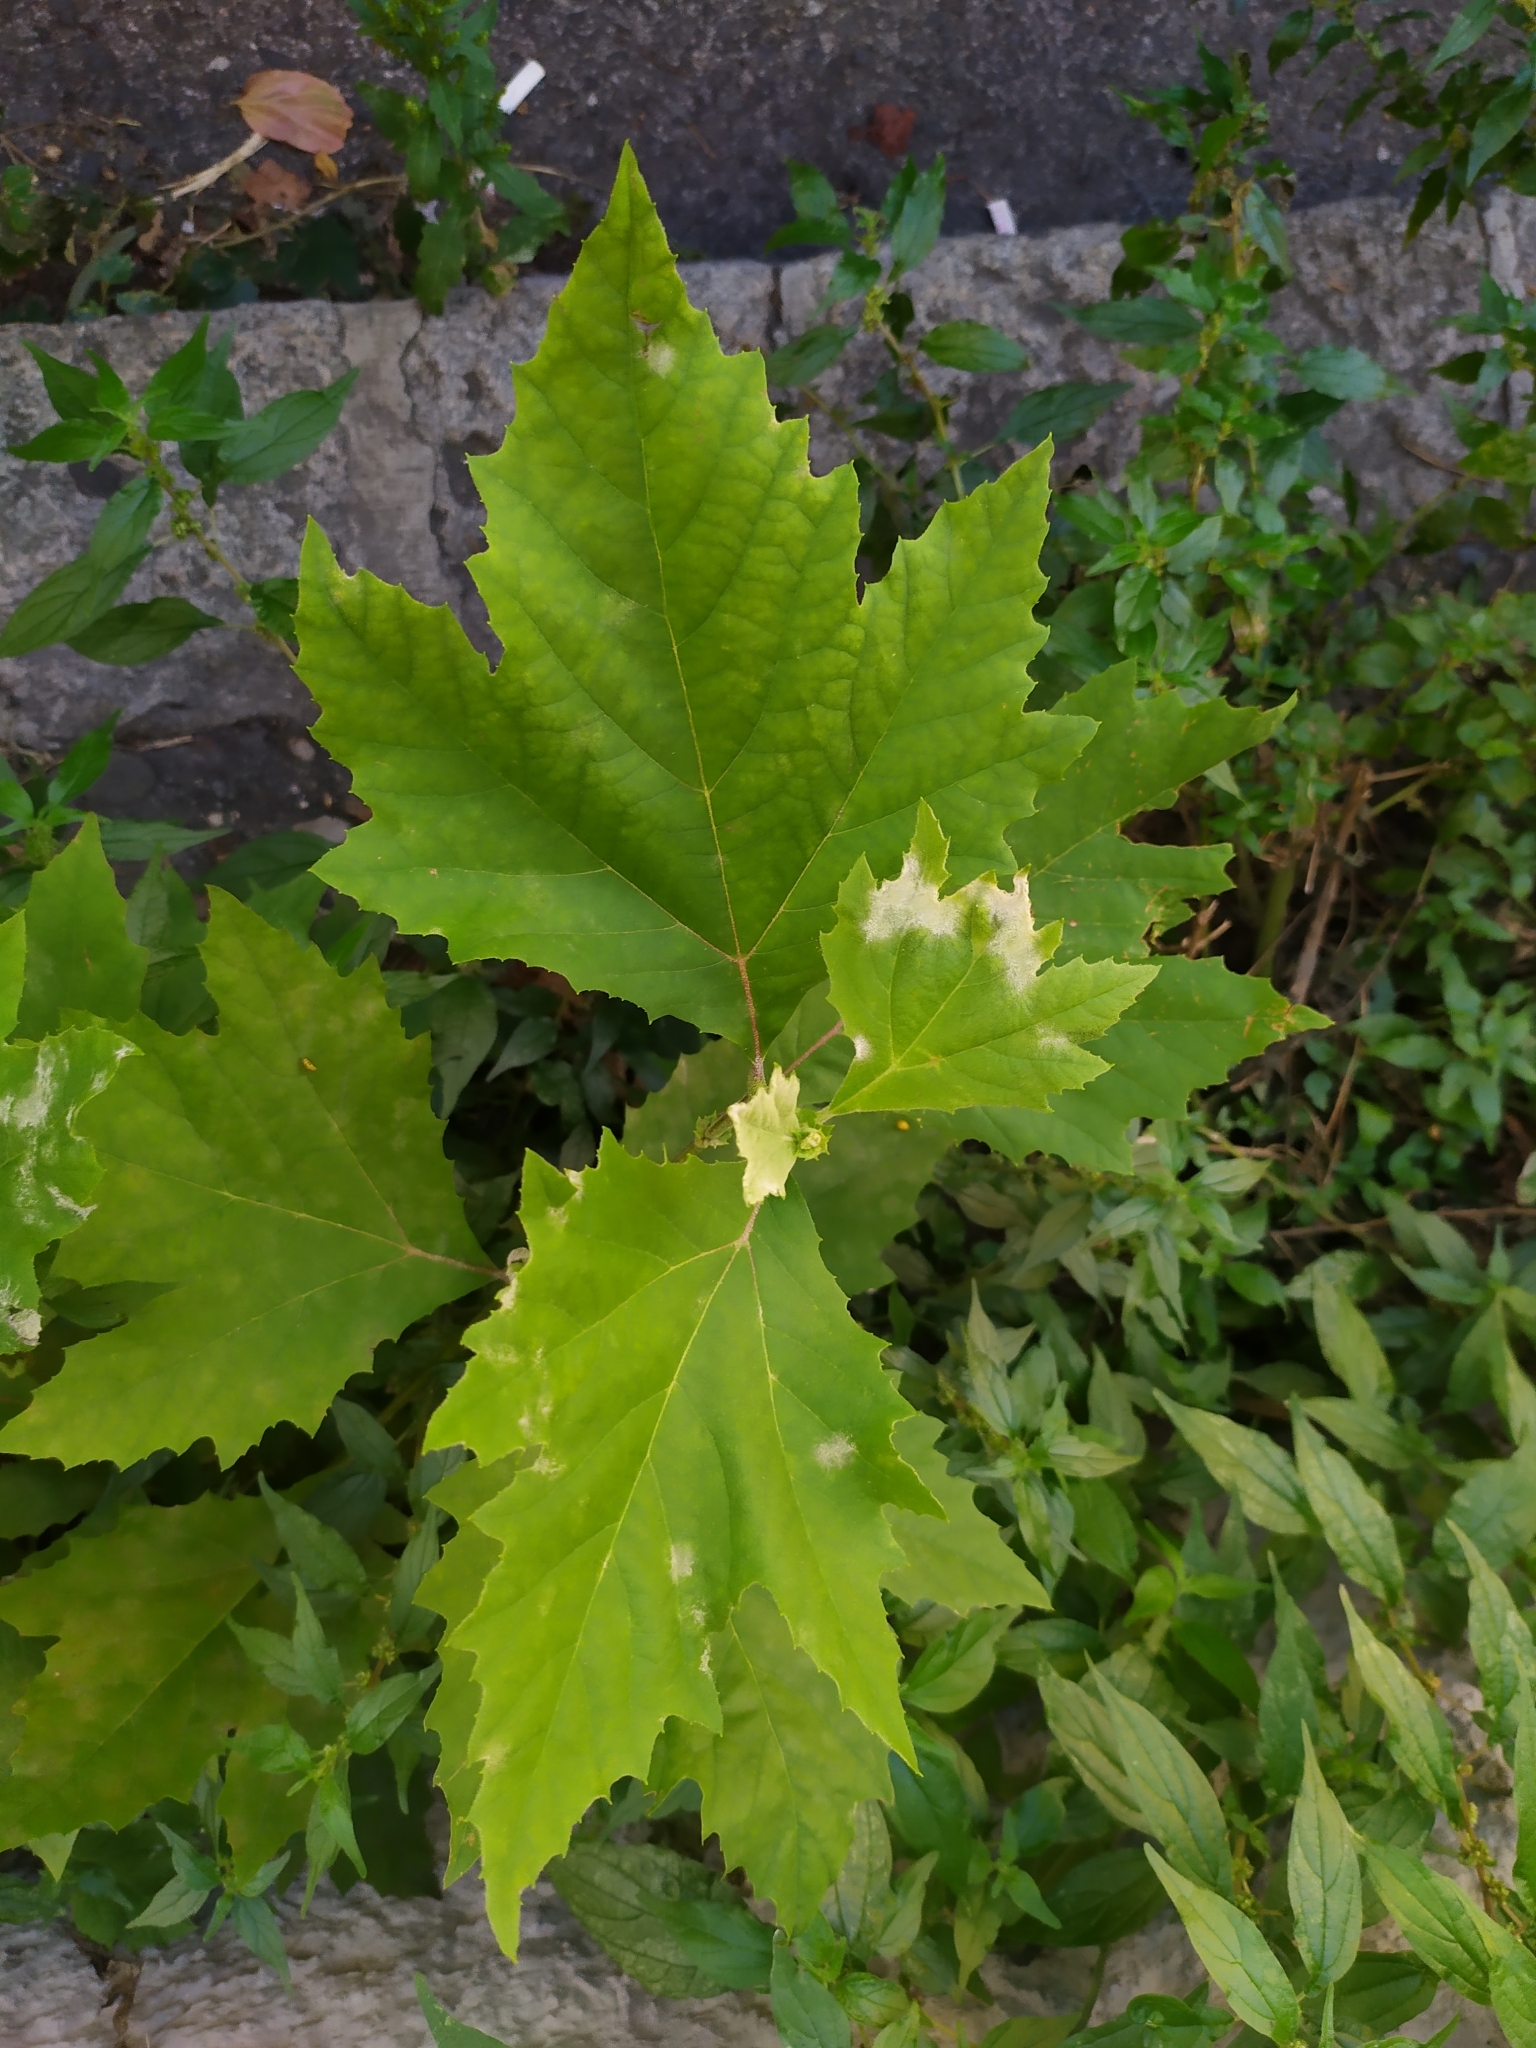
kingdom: Plantae
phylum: Tracheophyta
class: Magnoliopsida
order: Proteales
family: Platanaceae
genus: Platanus
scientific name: Platanus orientalis
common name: Oriental plane
